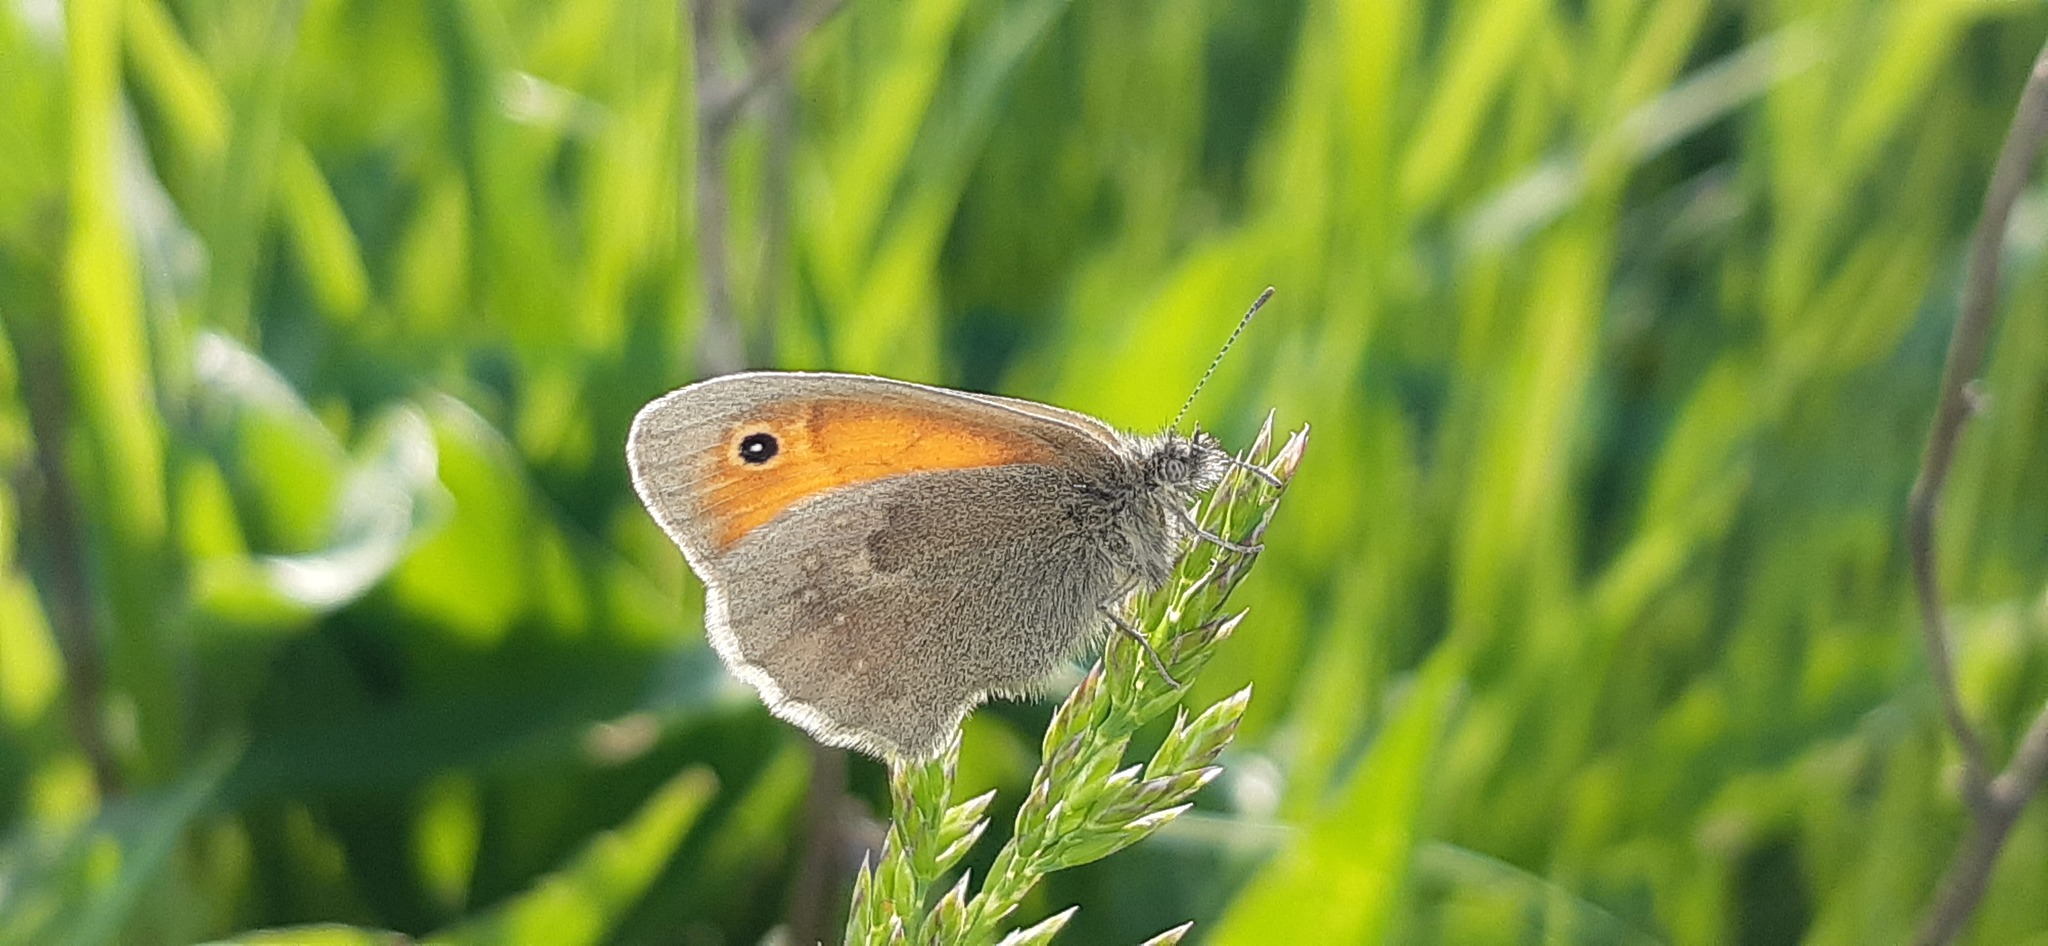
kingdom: Animalia
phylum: Arthropoda
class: Insecta
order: Lepidoptera
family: Nymphalidae
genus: Coenonympha
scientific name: Coenonympha pamphilus
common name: Small heath
